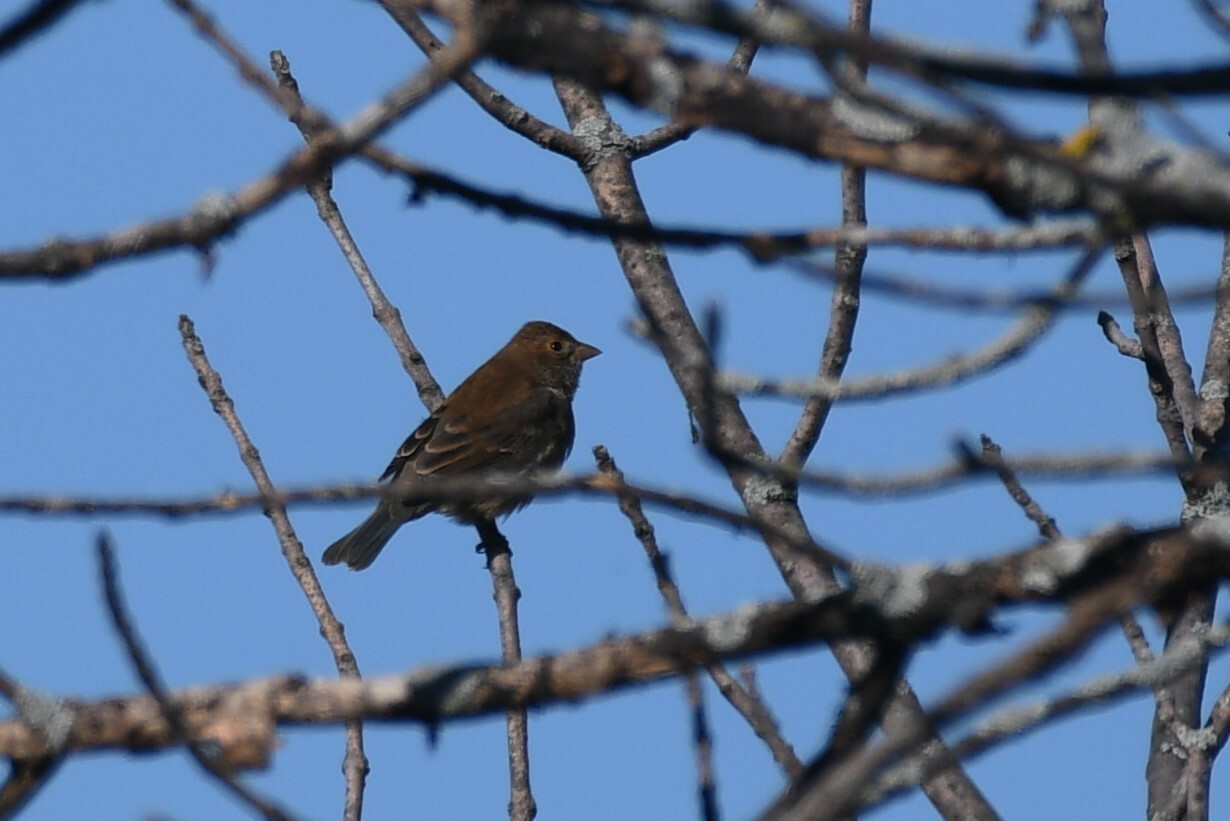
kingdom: Animalia
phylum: Chordata
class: Aves
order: Passeriformes
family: Cardinalidae
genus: Passerina
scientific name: Passerina cyanea
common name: Indigo bunting
